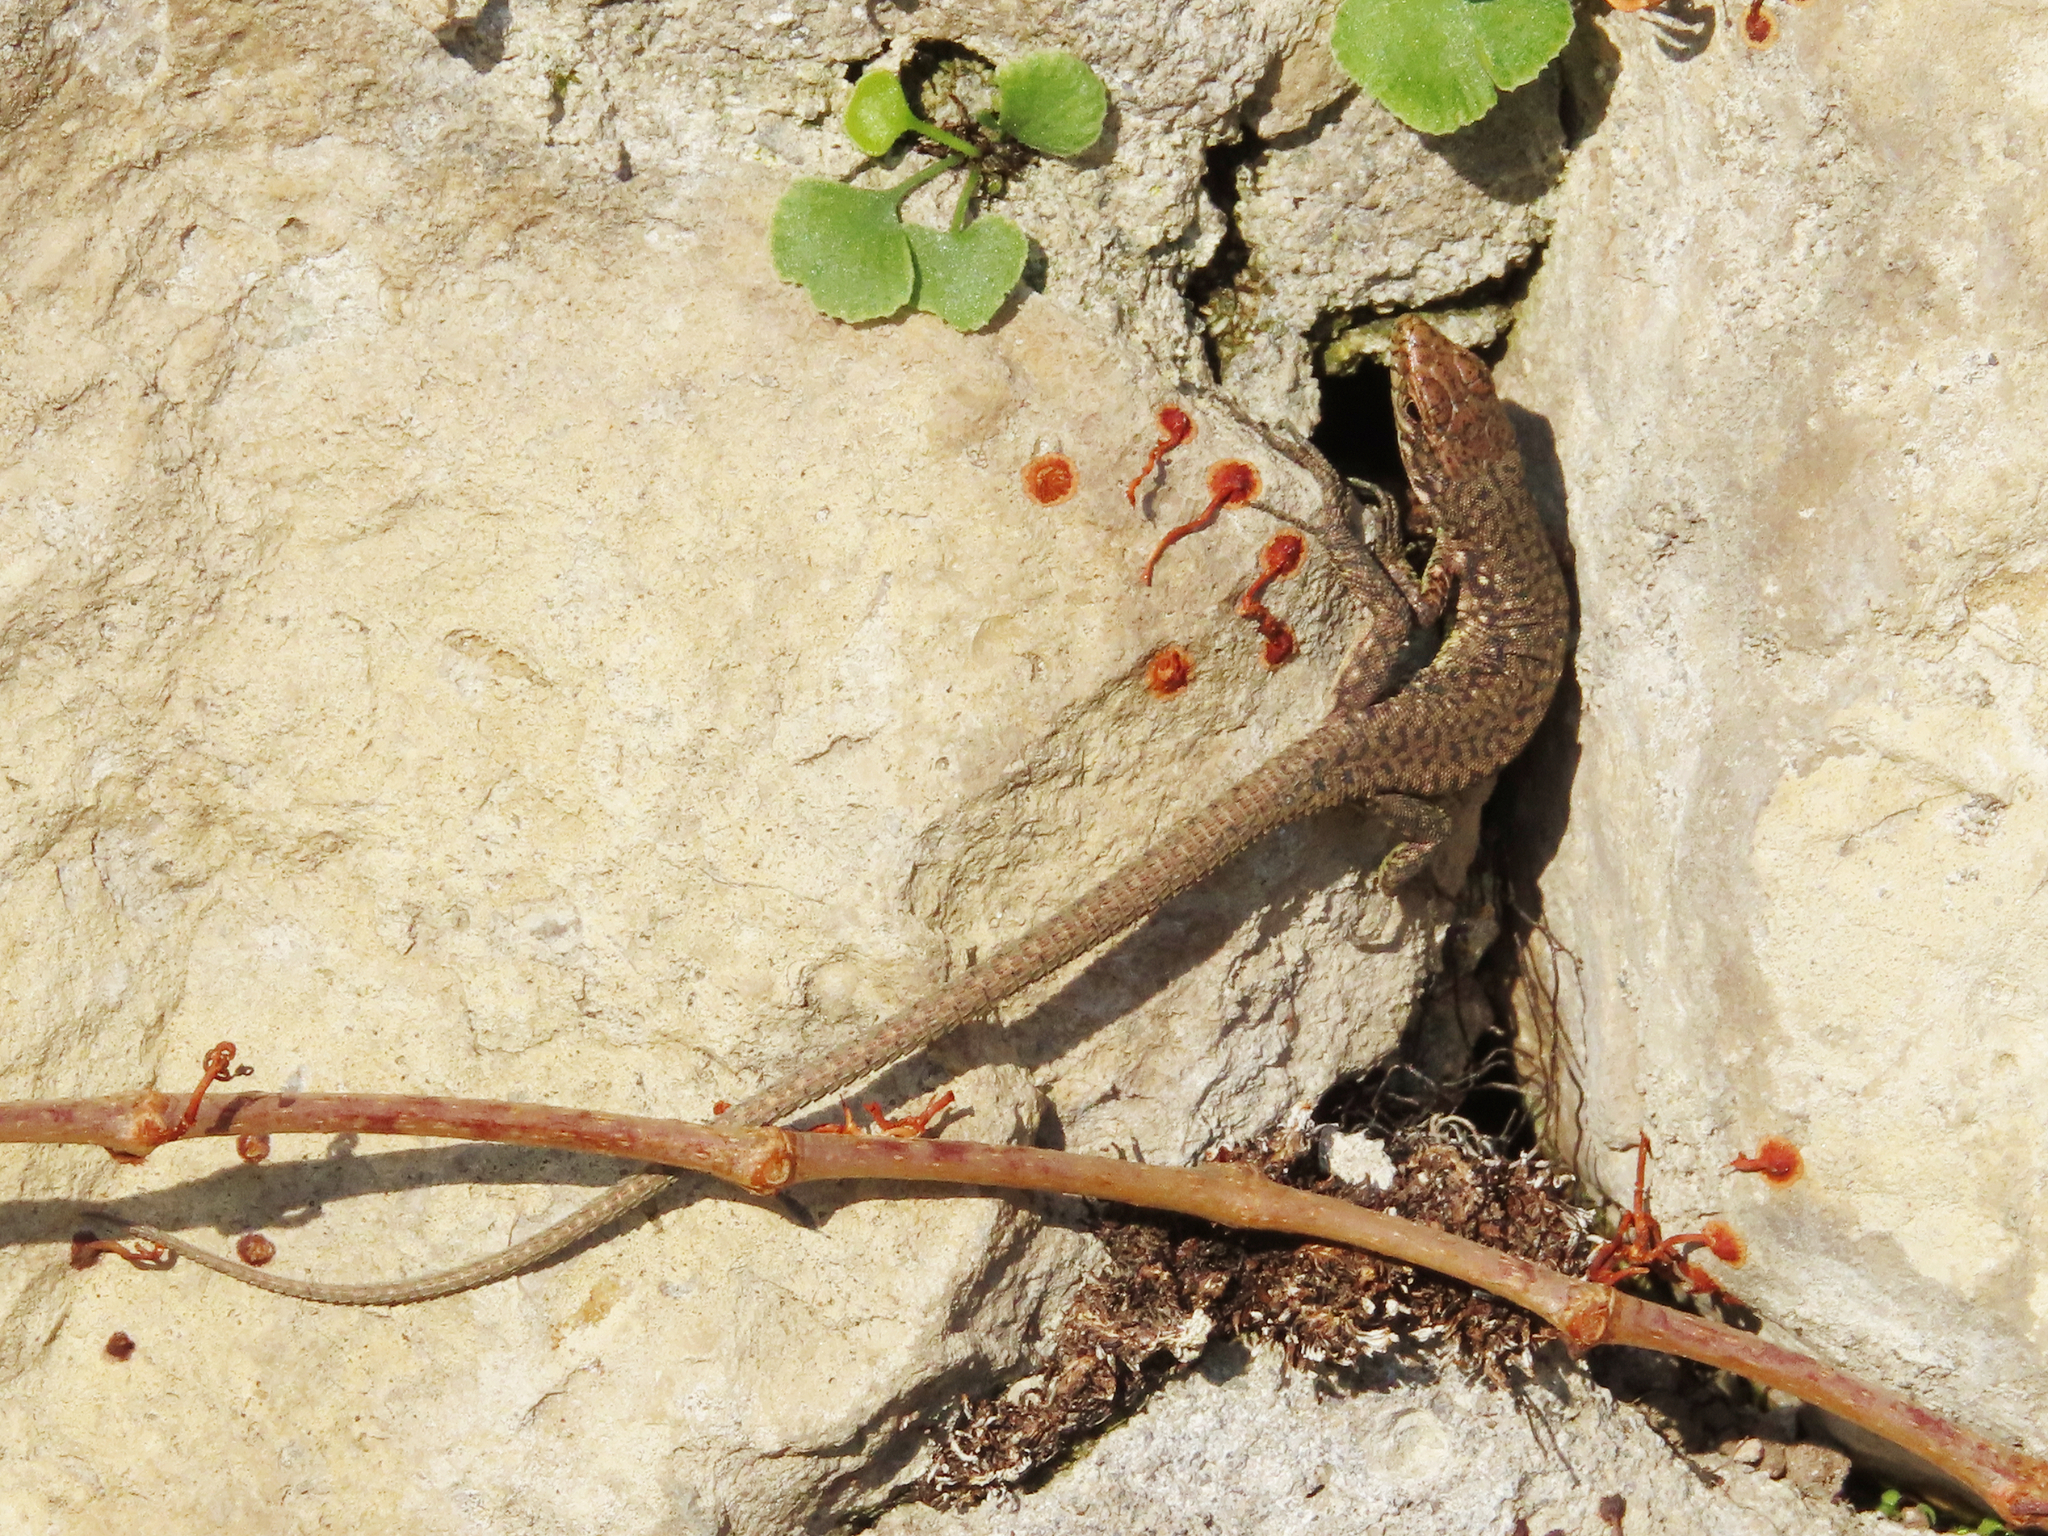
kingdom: Animalia
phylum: Chordata
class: Squamata
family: Lacertidae
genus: Darevskia
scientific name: Darevskia rudis
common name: Spiny-tailed lizard
